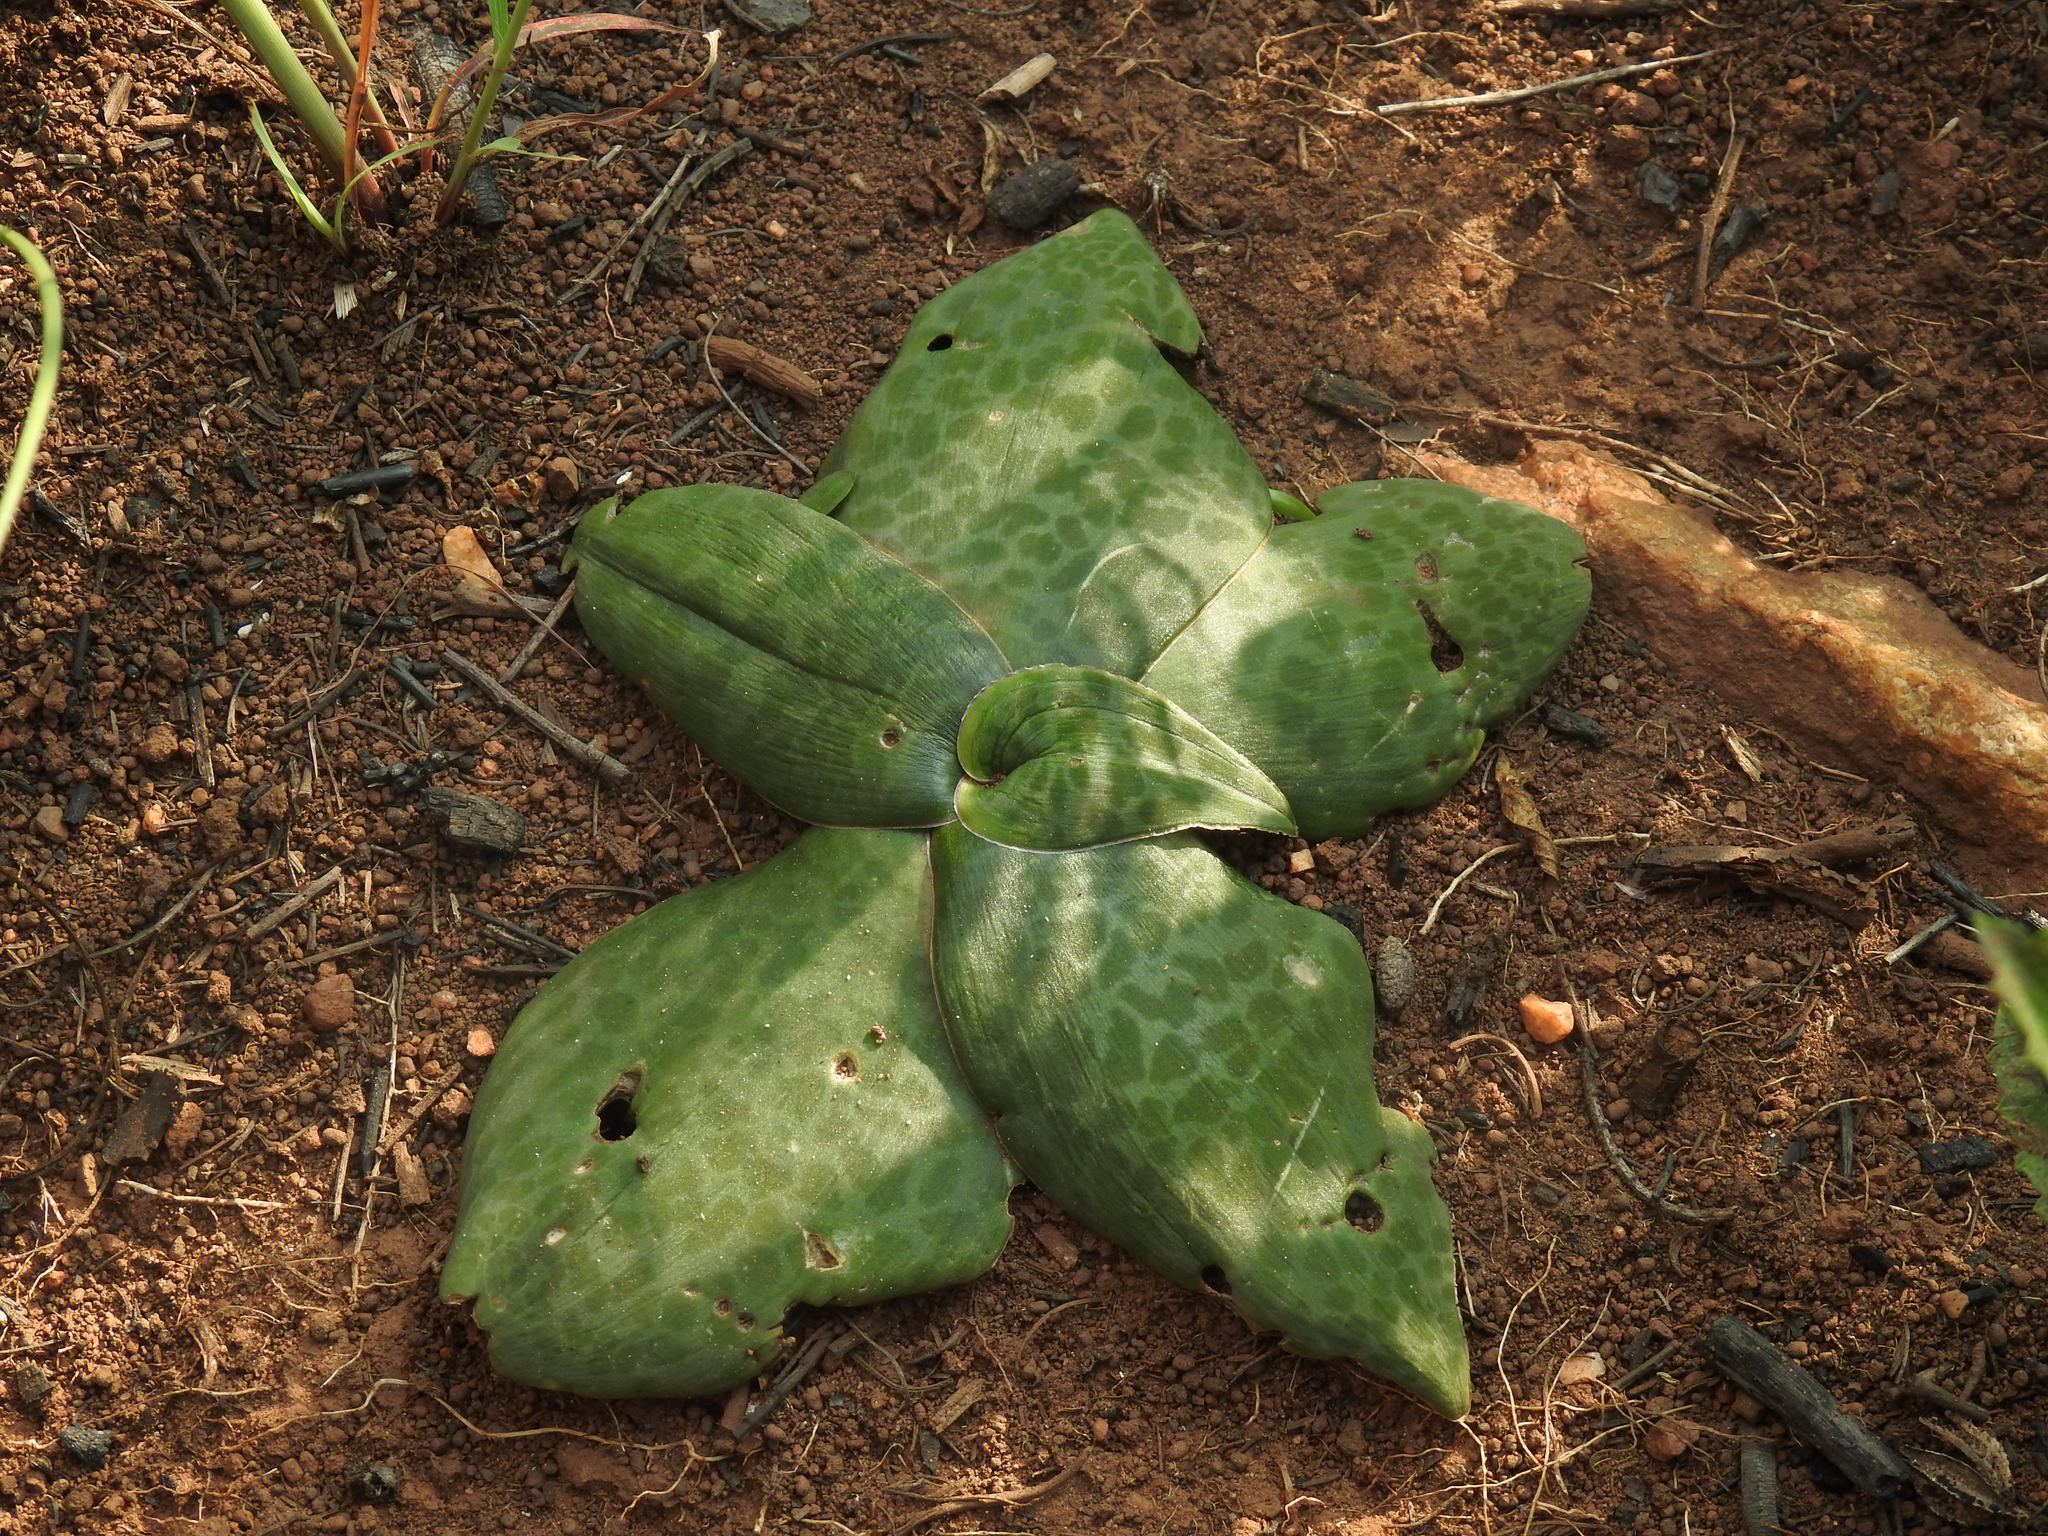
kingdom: Plantae
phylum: Tracheophyta
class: Liliopsida
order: Asparagales
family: Asparagaceae
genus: Ledebouria
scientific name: Ledebouria ovatifolia
